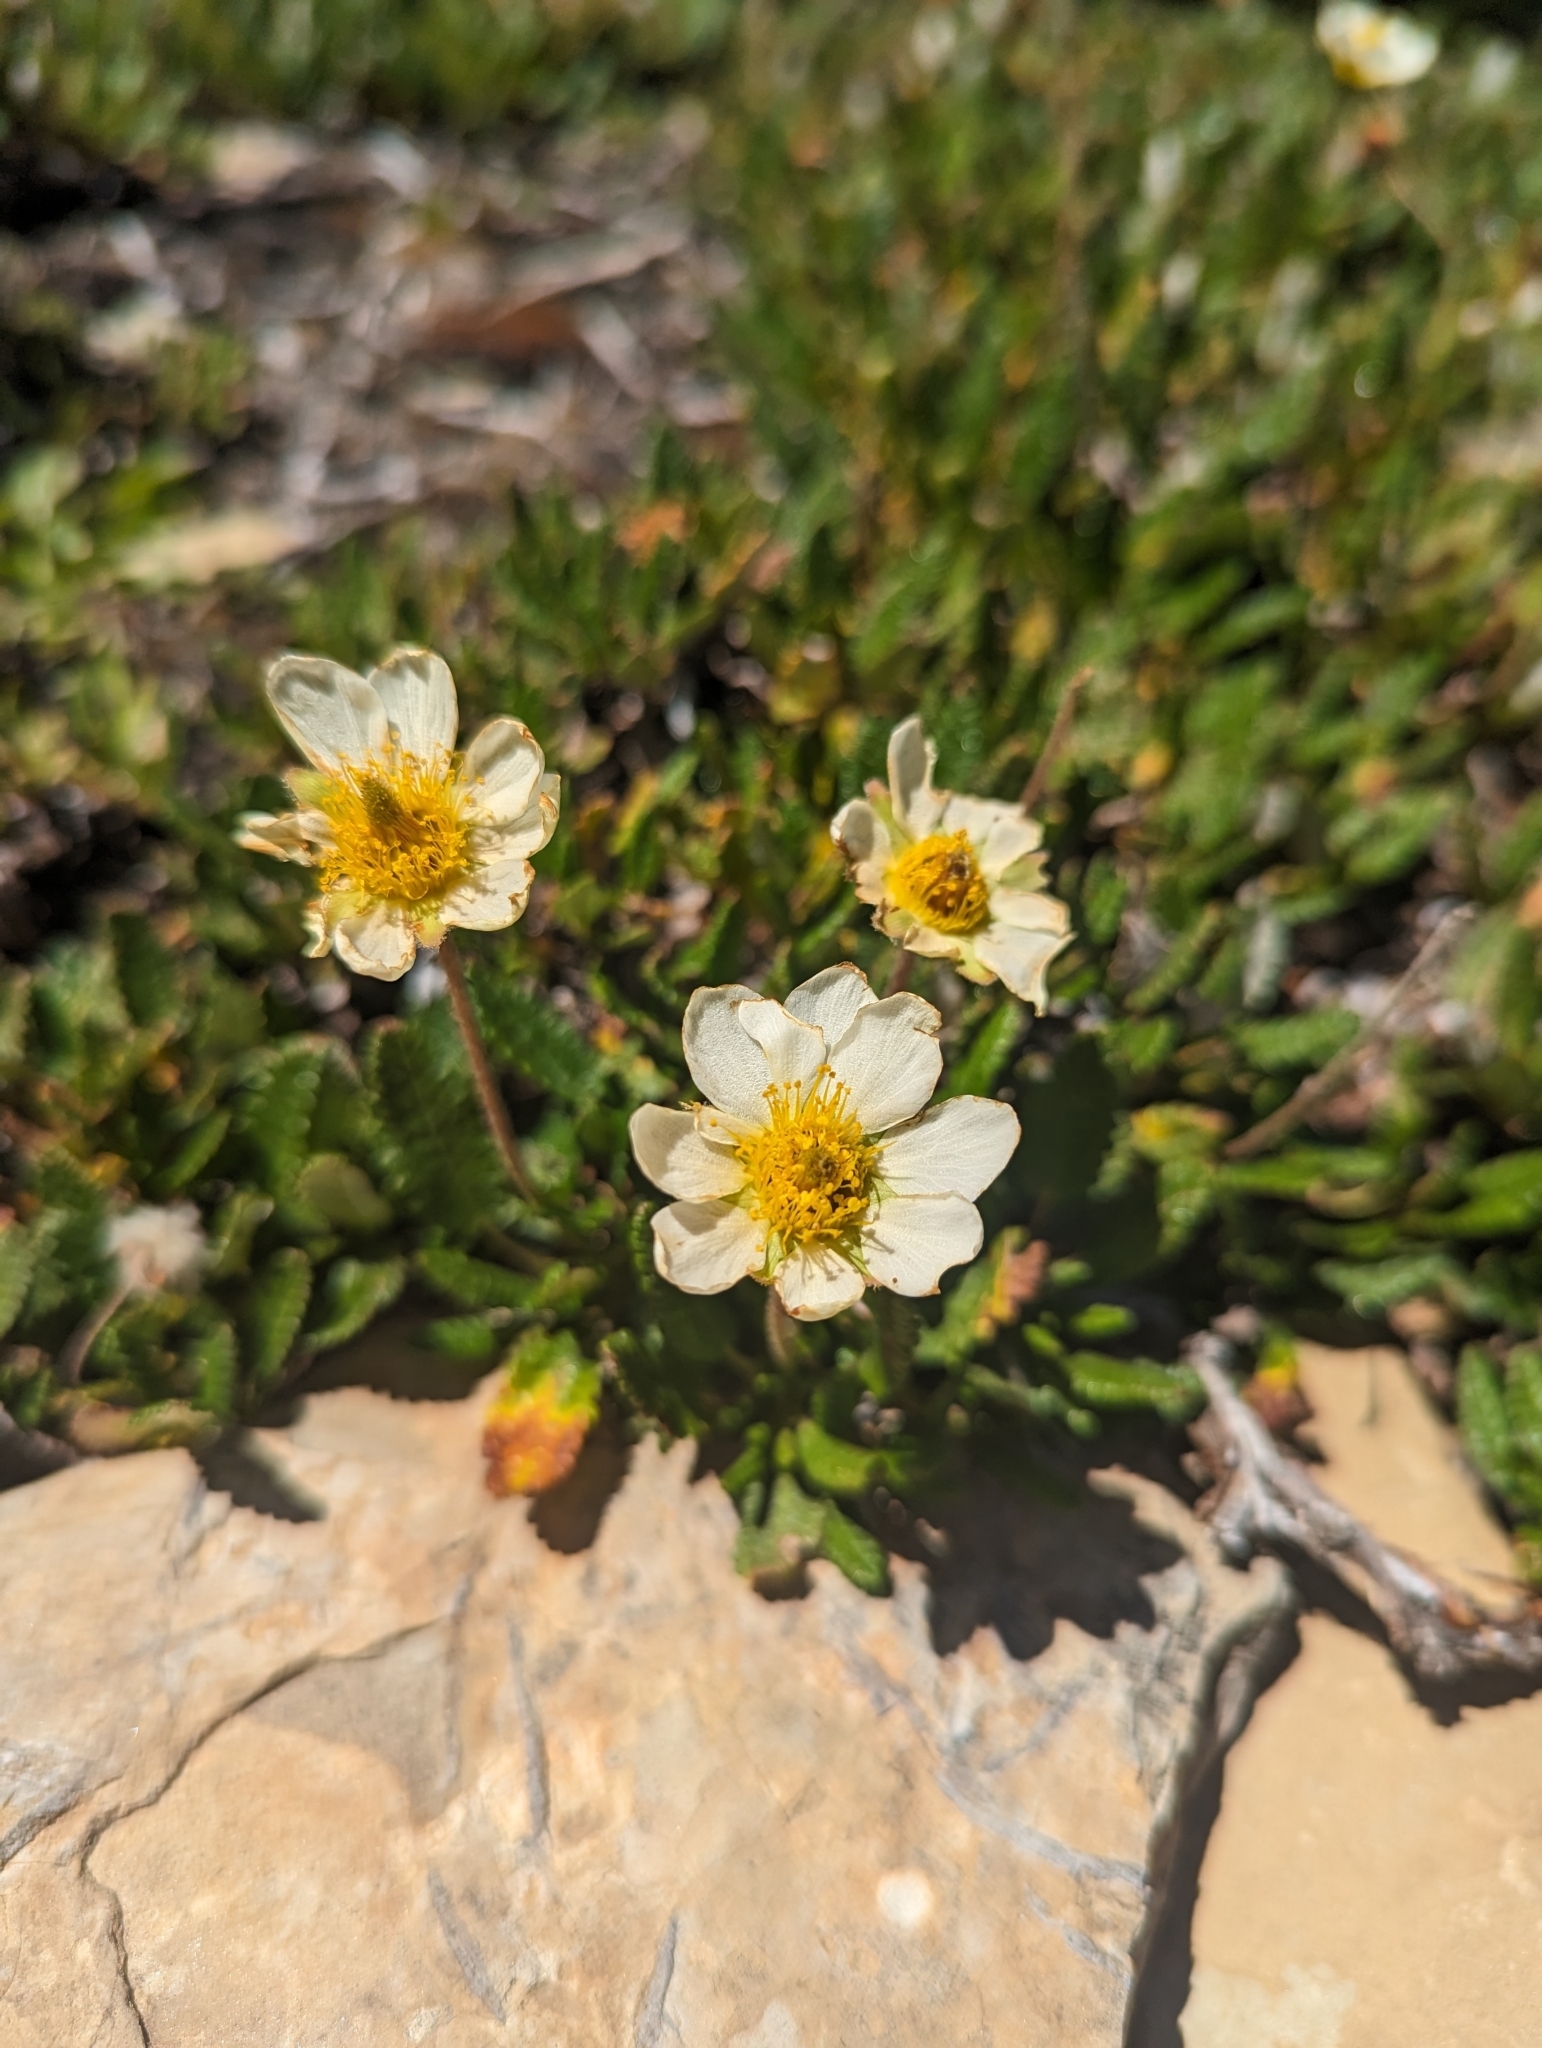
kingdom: Plantae
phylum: Tracheophyta
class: Magnoliopsida
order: Rosales
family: Rosaceae
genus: Dryas
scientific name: Dryas octopetala
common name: Eight-petal mountain-avens
